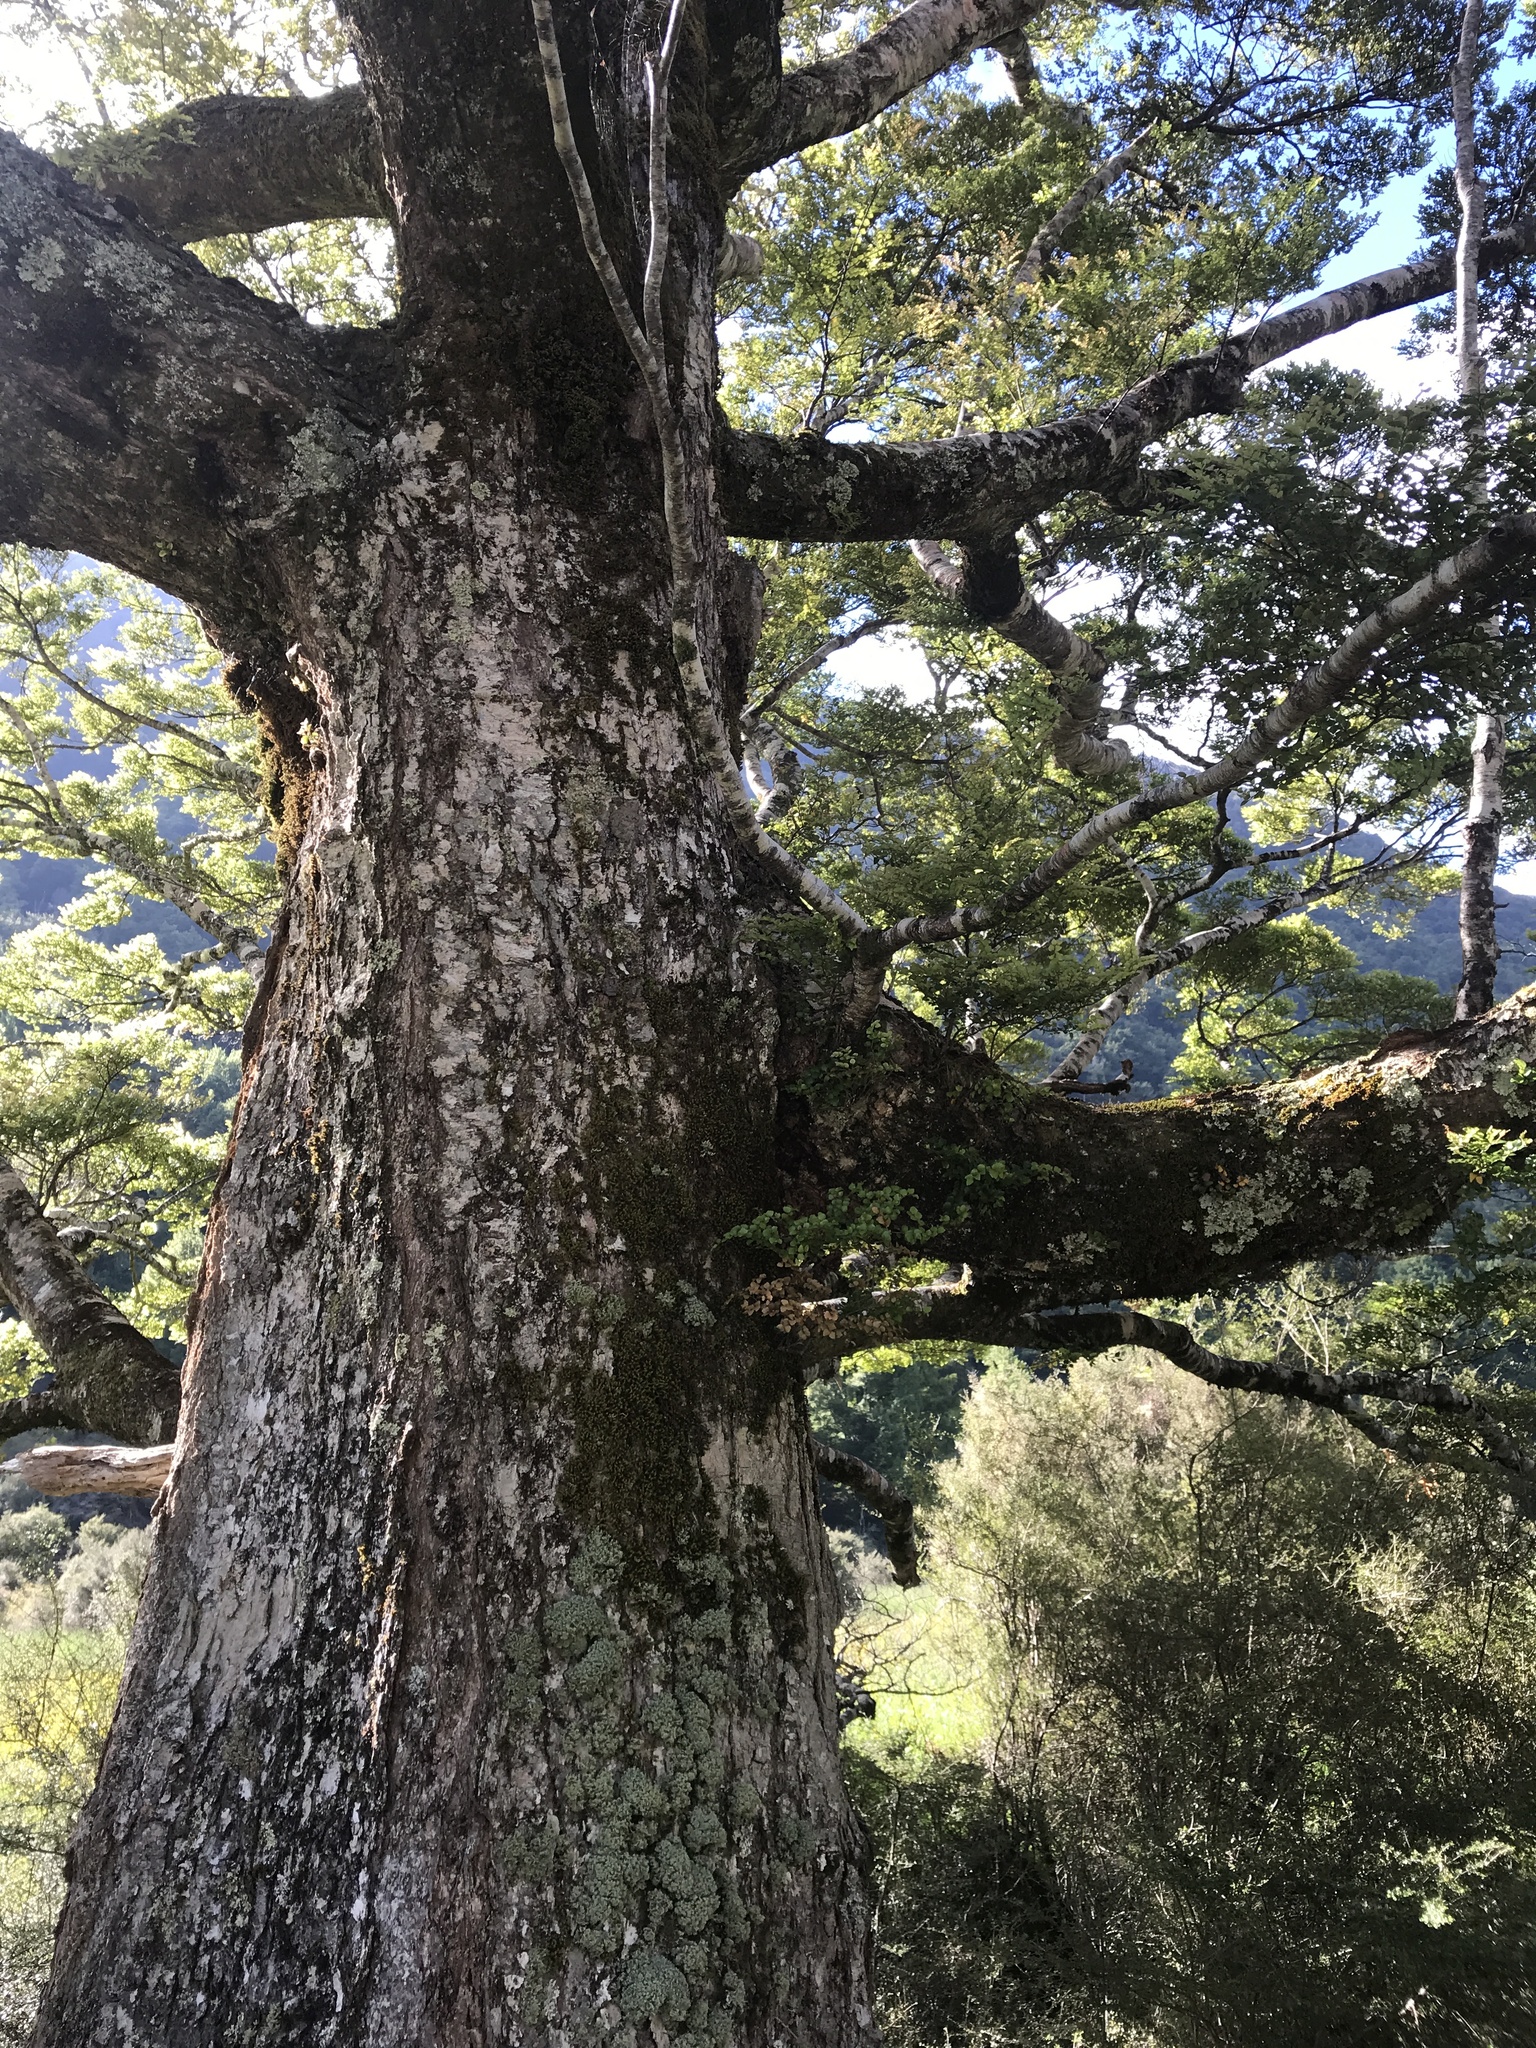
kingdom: Plantae
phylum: Tracheophyta
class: Magnoliopsida
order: Fagales
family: Nothofagaceae
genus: Nothofagus
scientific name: Nothofagus menziesii
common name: Silver beech
